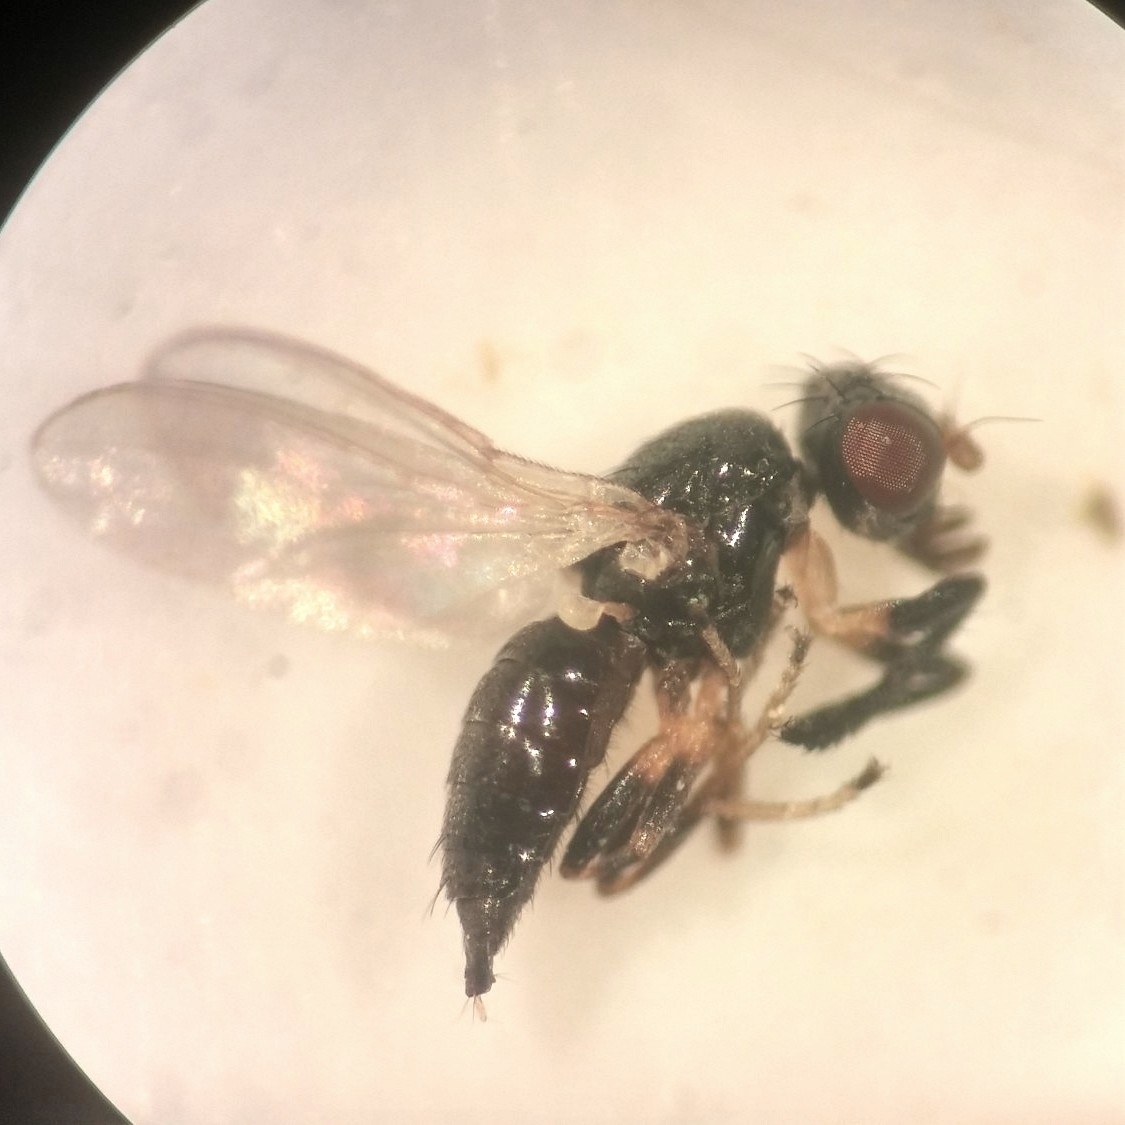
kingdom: Animalia
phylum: Arthropoda
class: Insecta
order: Diptera
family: Piophilidae
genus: Protopiophila
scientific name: Protopiophila litigata
